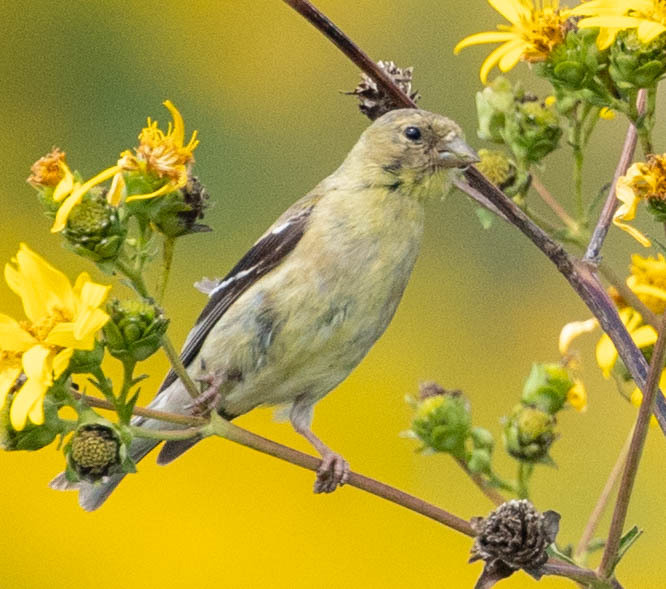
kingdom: Animalia
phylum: Chordata
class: Aves
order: Passeriformes
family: Fringillidae
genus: Spinus
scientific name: Spinus tristis
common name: American goldfinch
